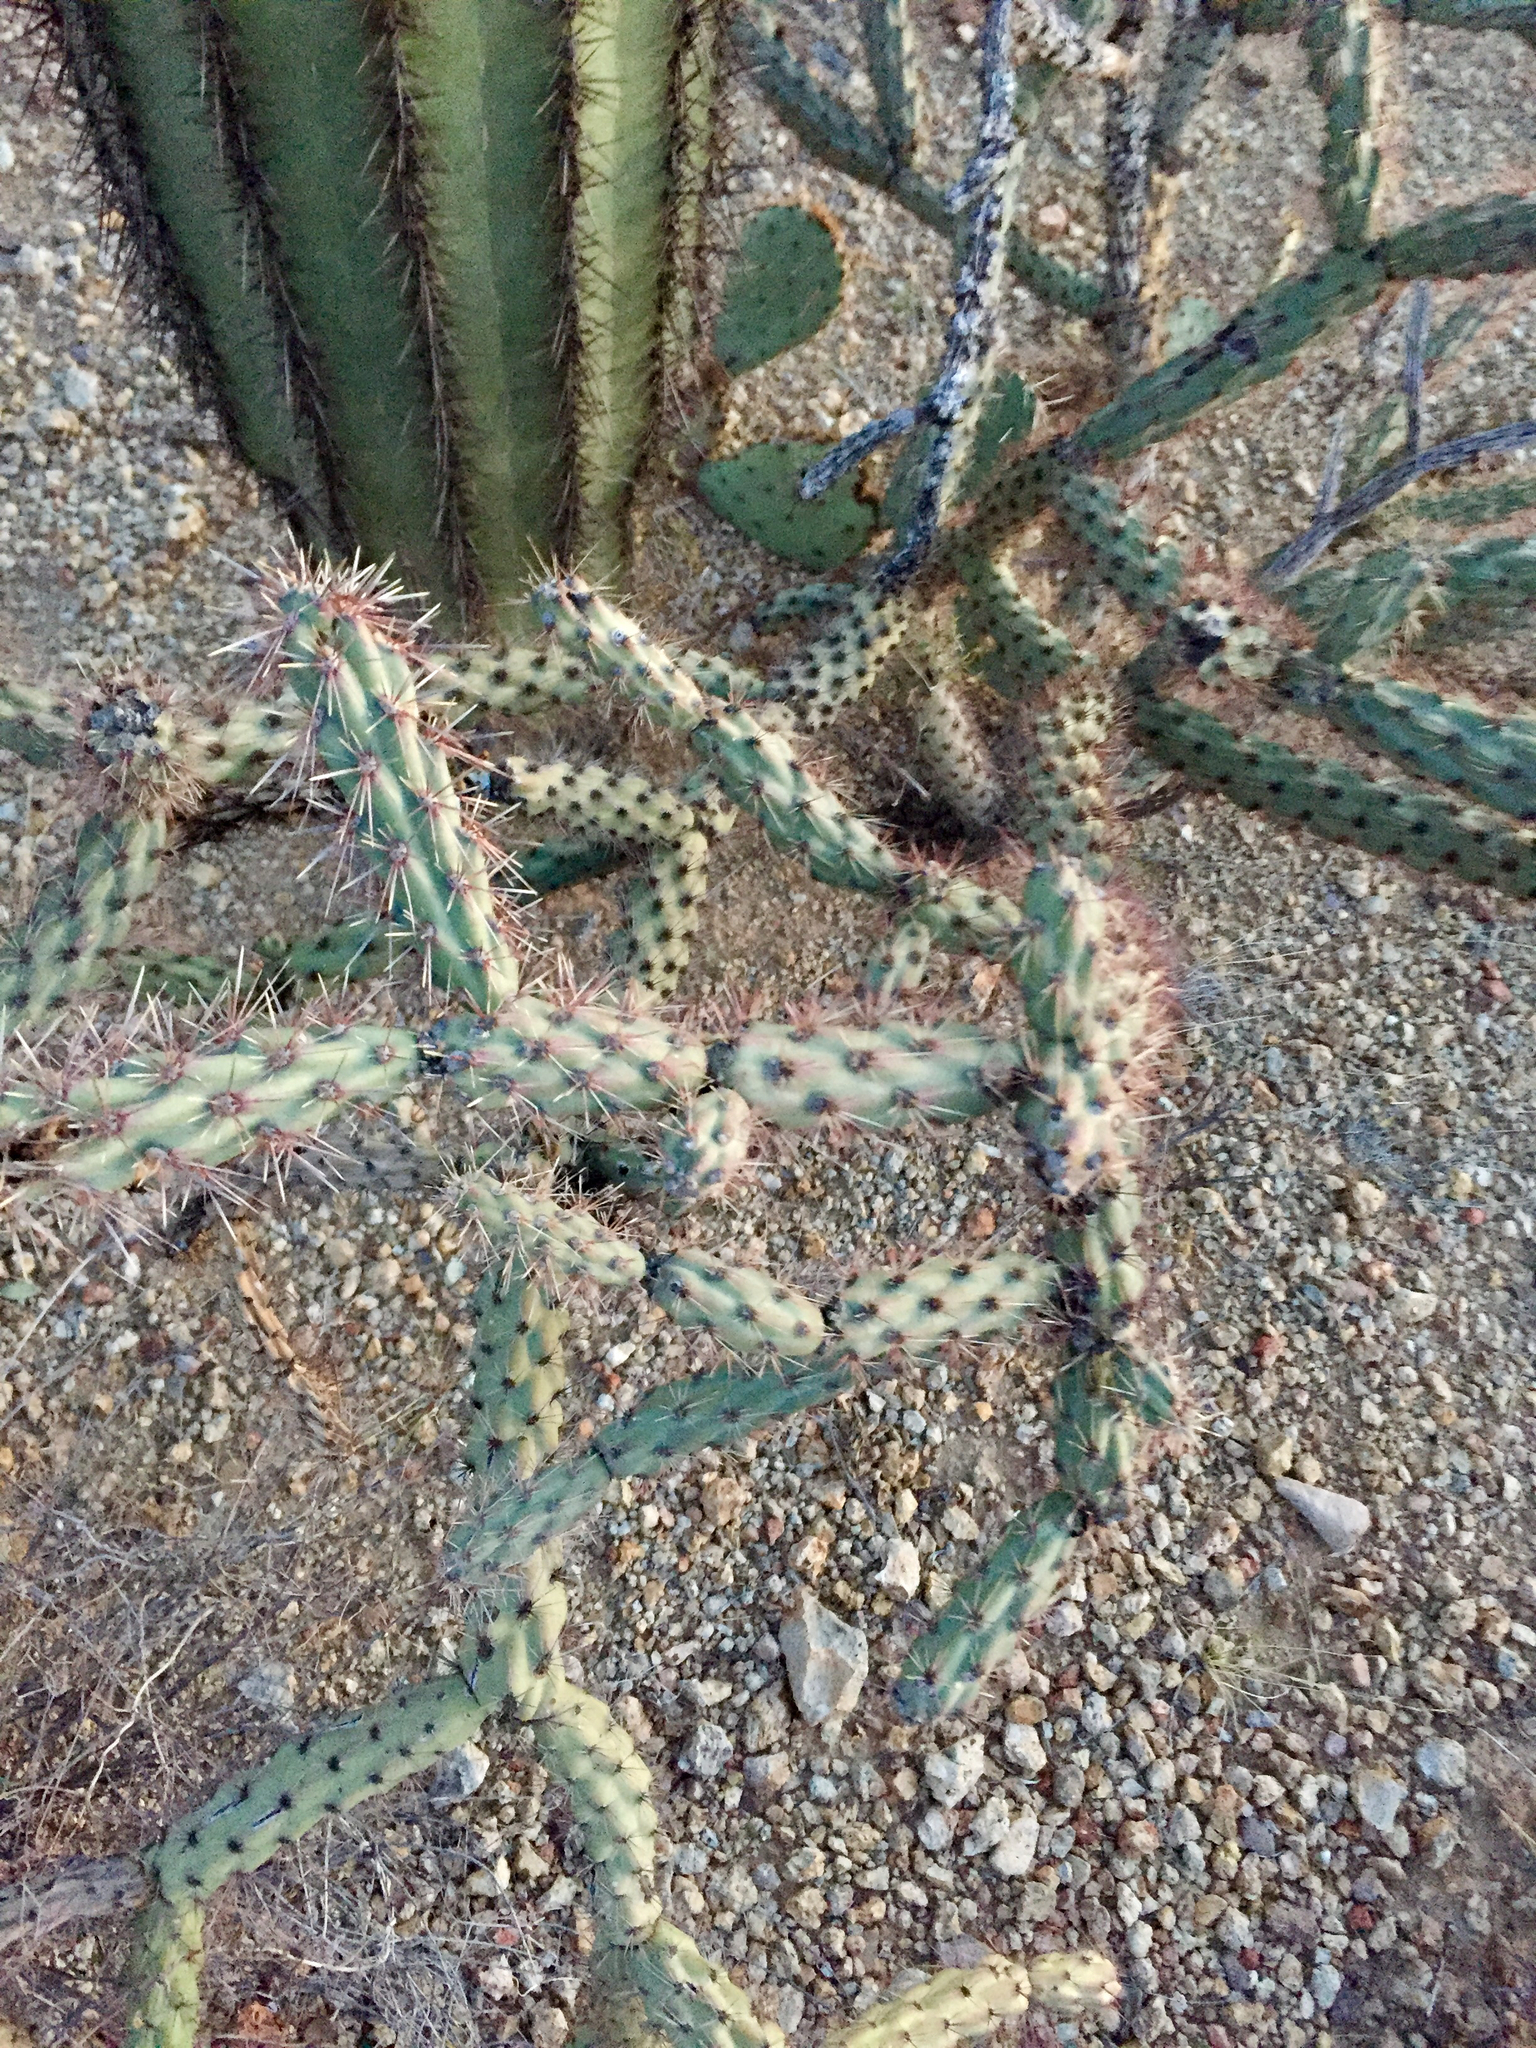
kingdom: Plantae
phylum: Tracheophyta
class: Magnoliopsida
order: Caryophyllales
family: Cactaceae
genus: Cylindropuntia
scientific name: Cylindropuntia acanthocarpa
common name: Buckhorn cholla
